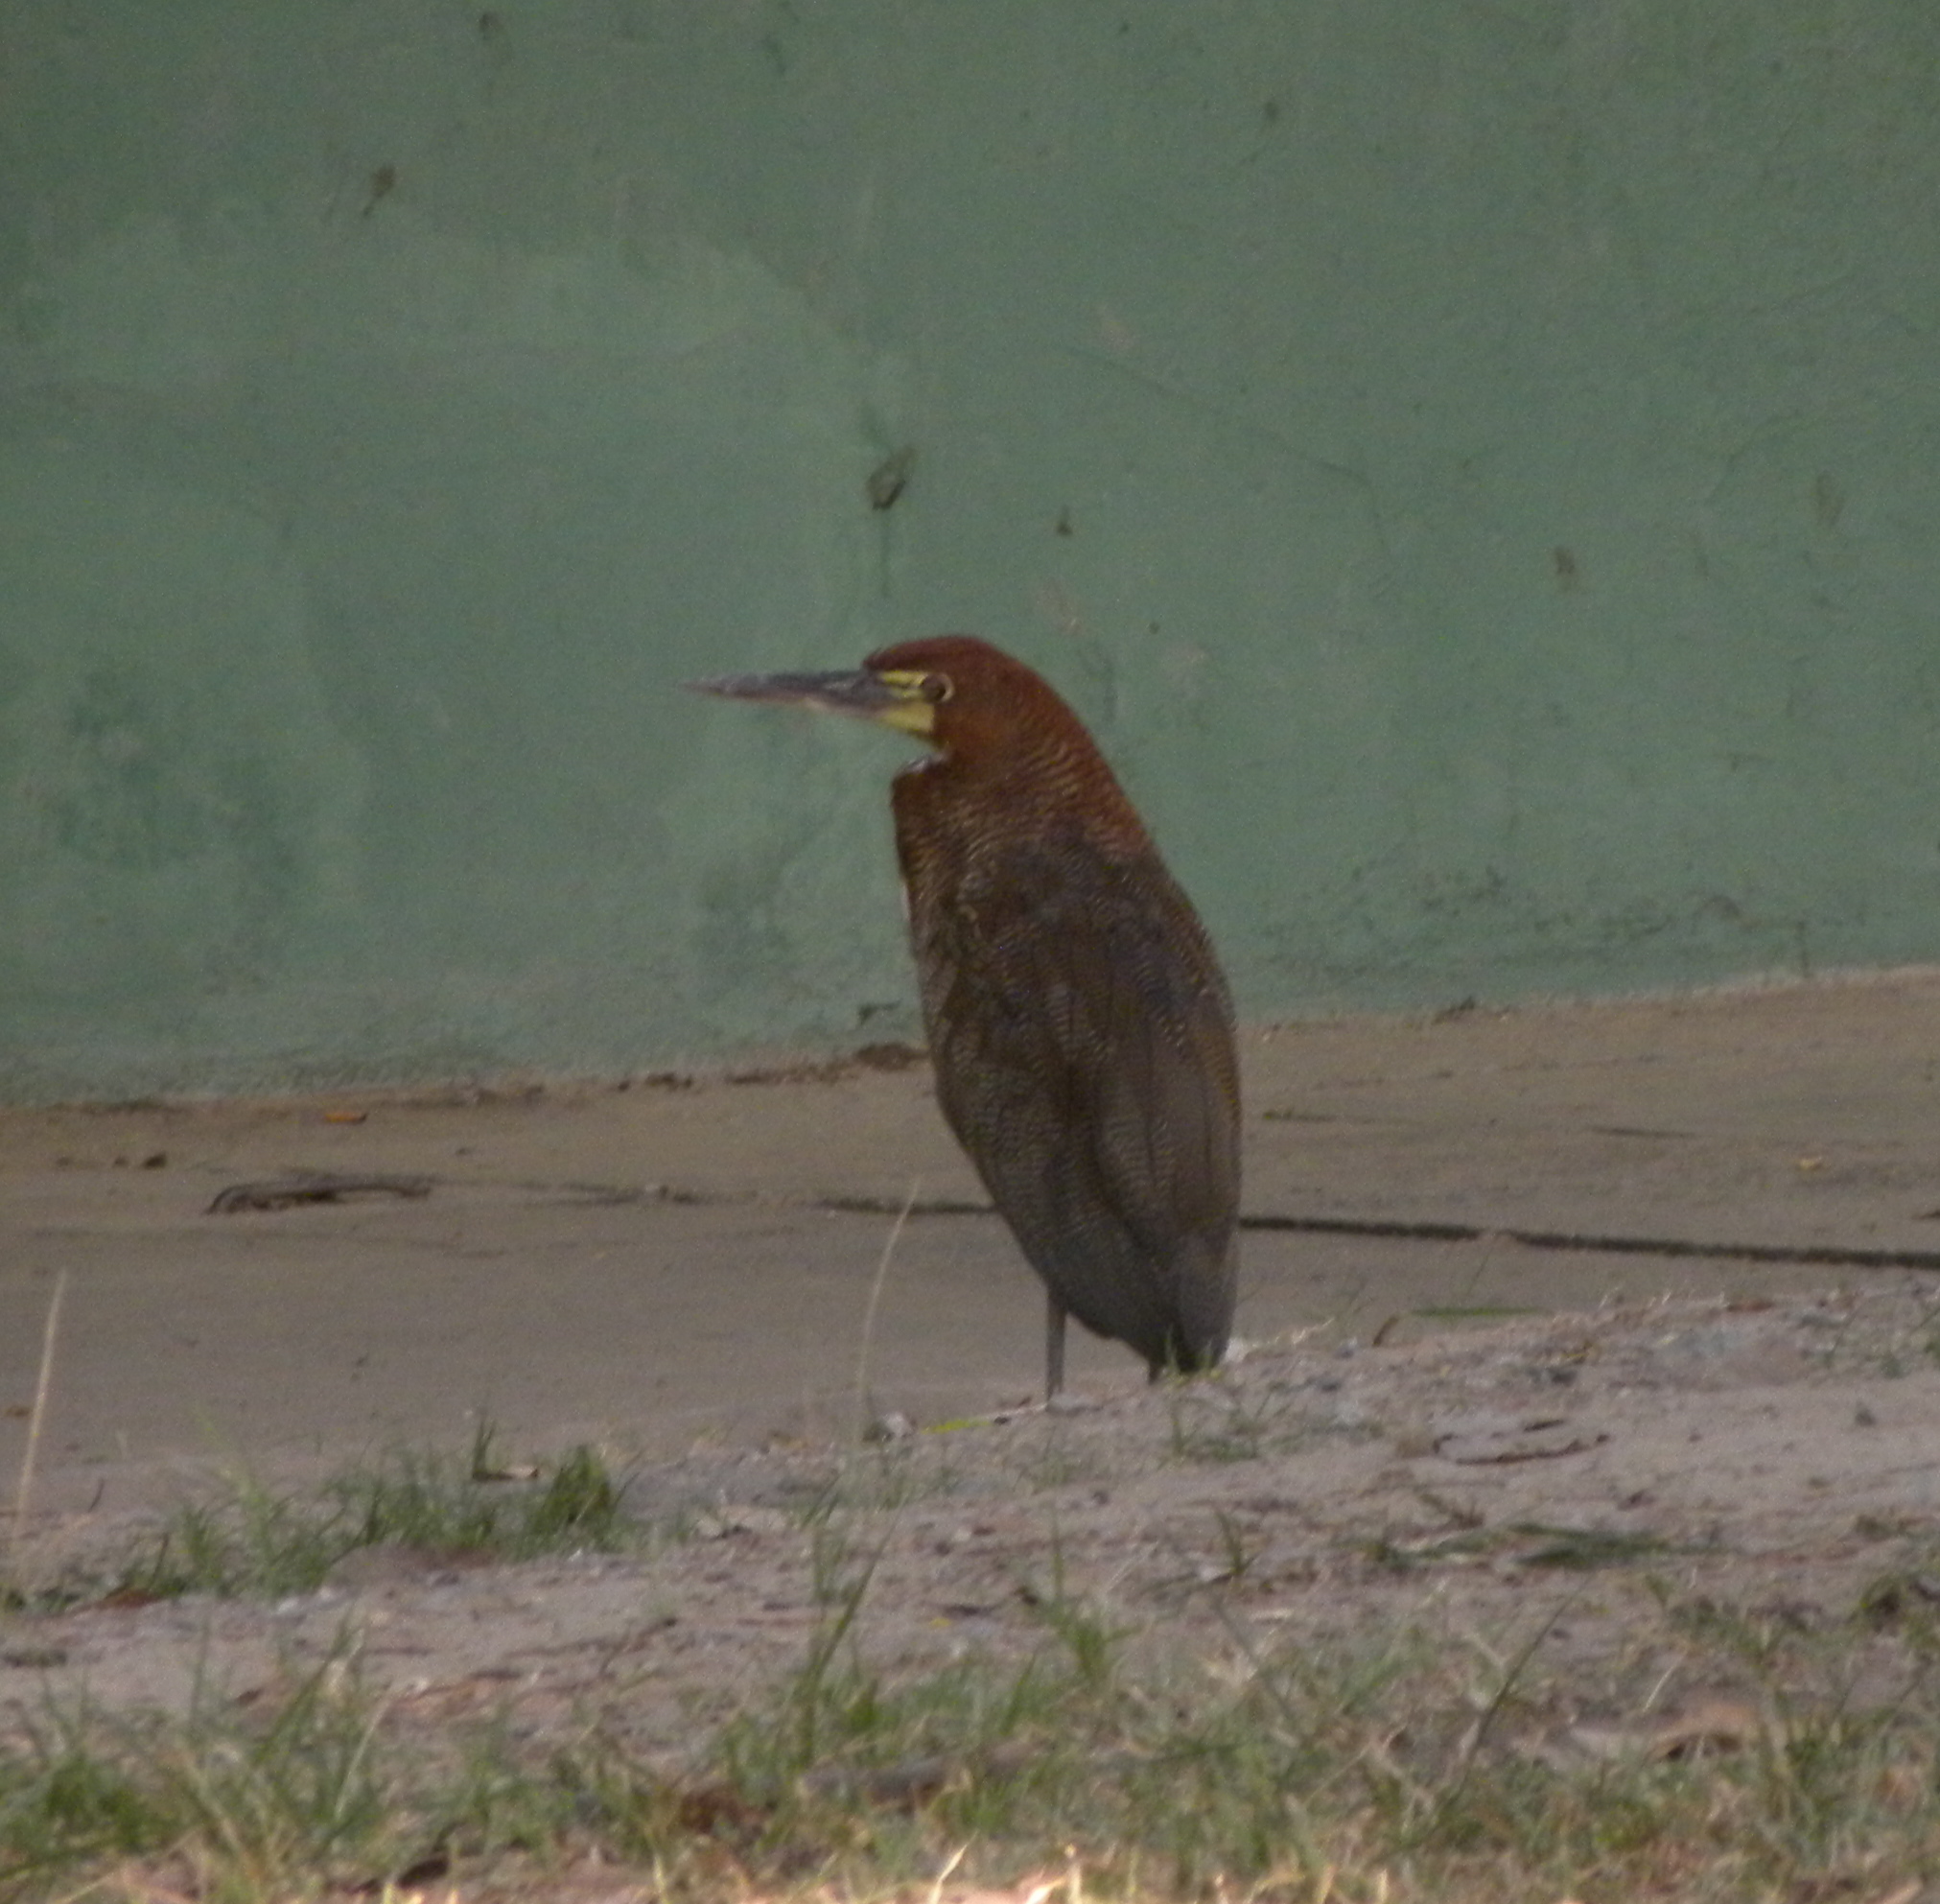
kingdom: Animalia
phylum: Chordata
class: Aves
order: Pelecaniformes
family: Ardeidae
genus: Tigrisoma
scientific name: Tigrisoma lineatum
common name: Rufescent tiger-heron
